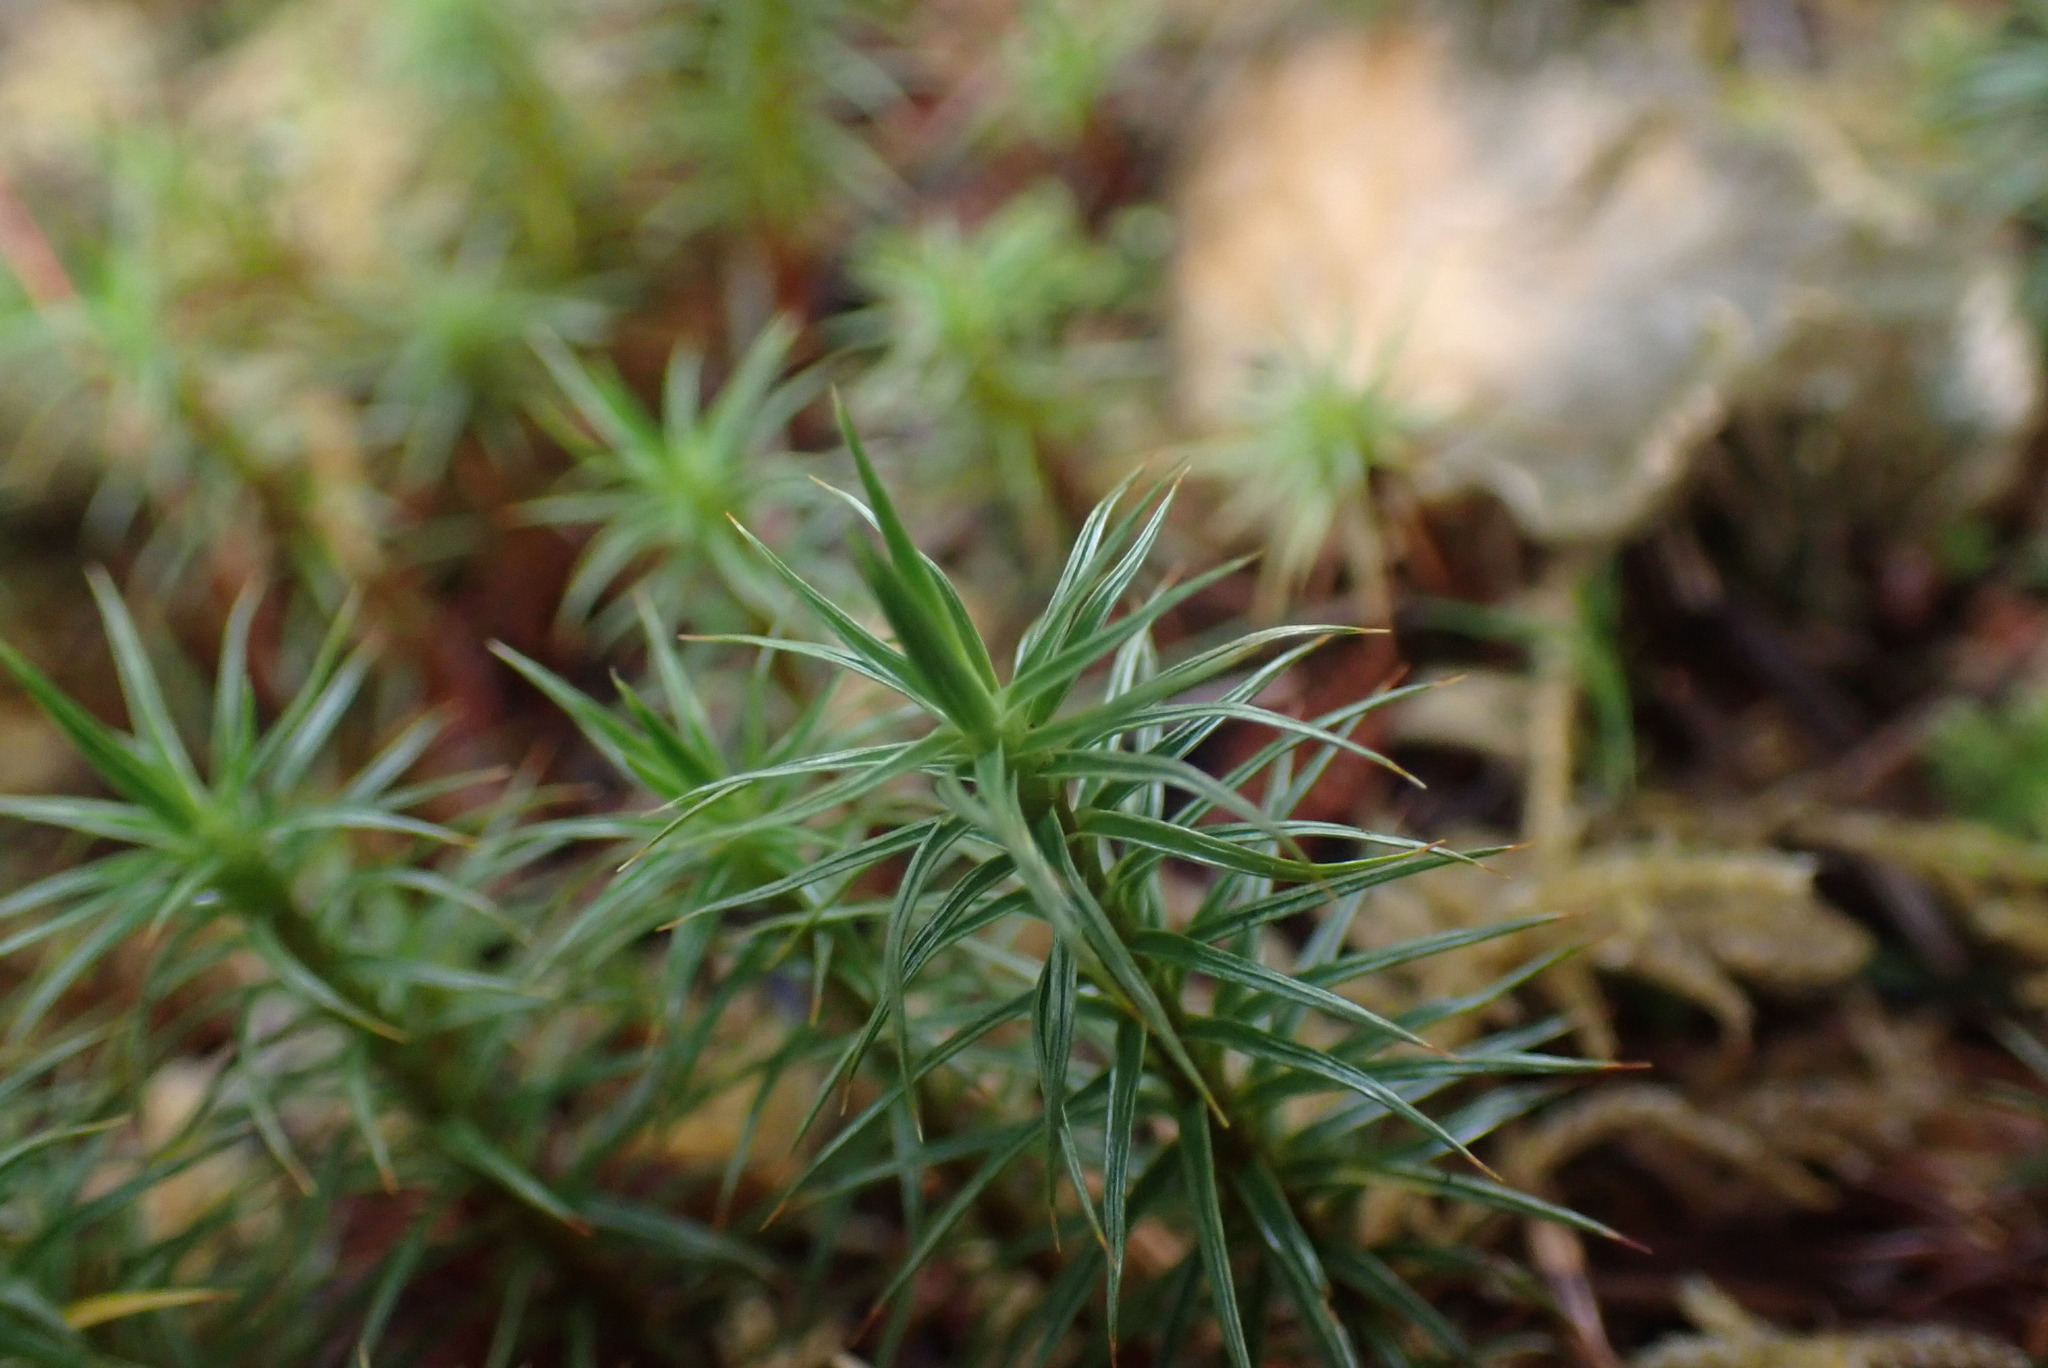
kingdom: Plantae
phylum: Bryophyta
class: Polytrichopsida
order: Polytrichales
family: Polytrichaceae
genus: Polytrichum
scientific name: Polytrichum juniperinum
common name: Juniper haircap moss
